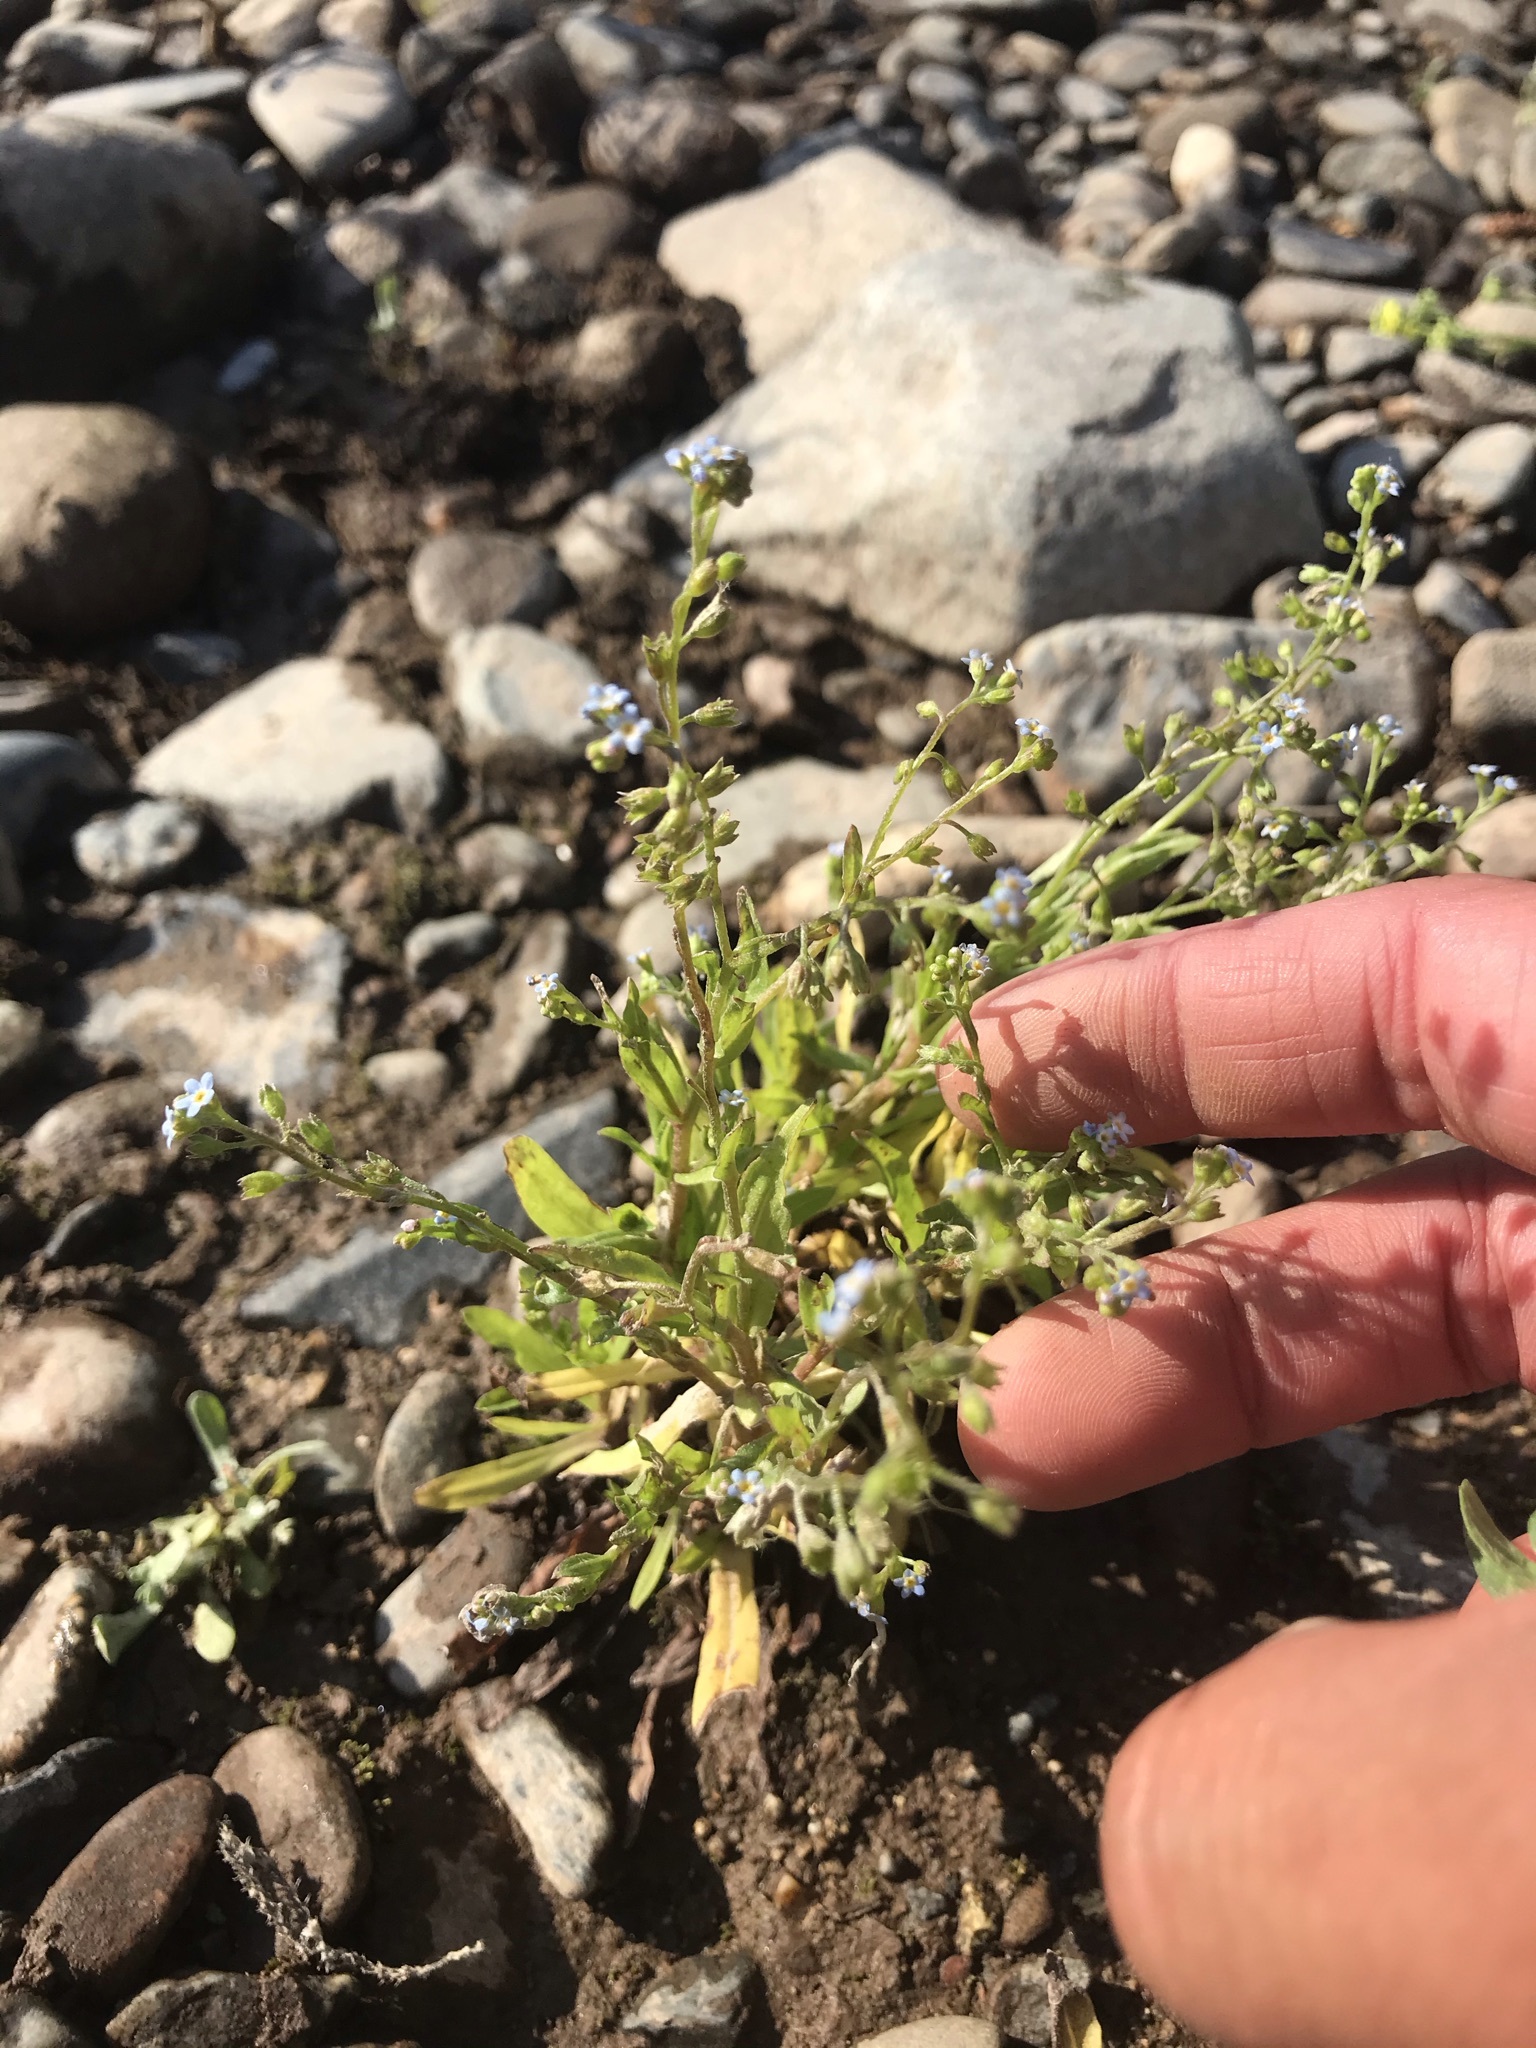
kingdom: Plantae
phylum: Tracheophyta
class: Magnoliopsida
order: Boraginales
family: Boraginaceae
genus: Myosotis
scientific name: Myosotis laxa
